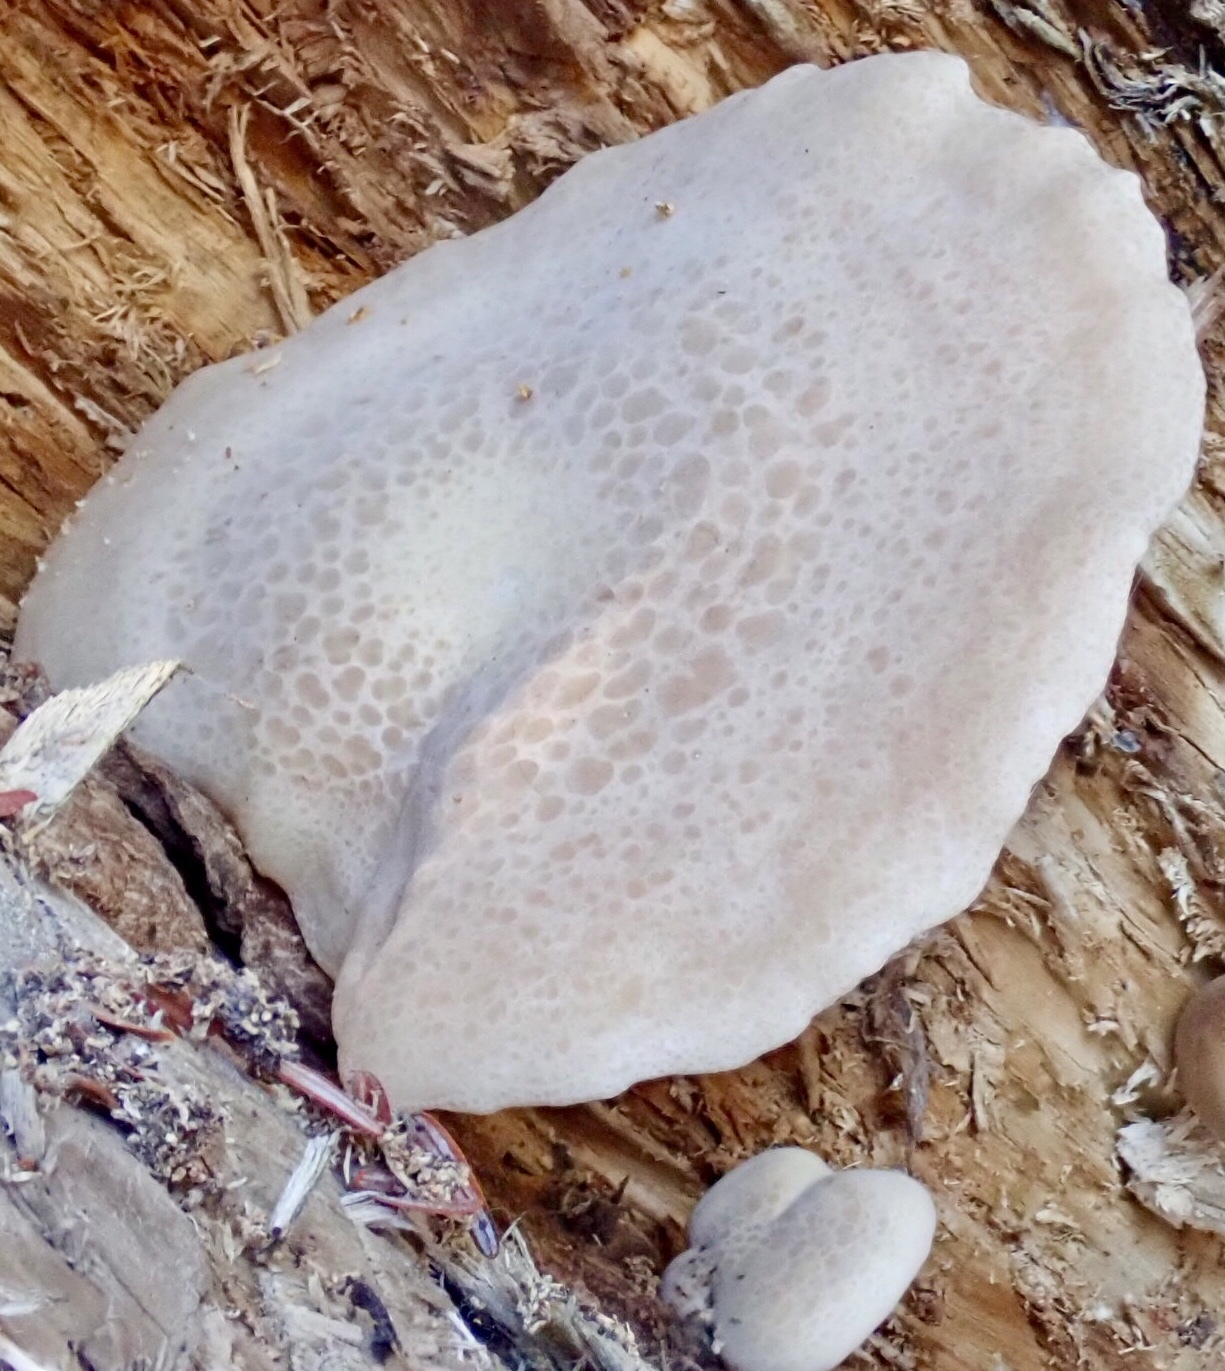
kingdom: Fungi
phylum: Basidiomycota
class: Agaricomycetes
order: Agaricales
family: Lyophyllaceae
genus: Hypsizygus
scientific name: Hypsizygus tessulatus
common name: Beech mushroom
